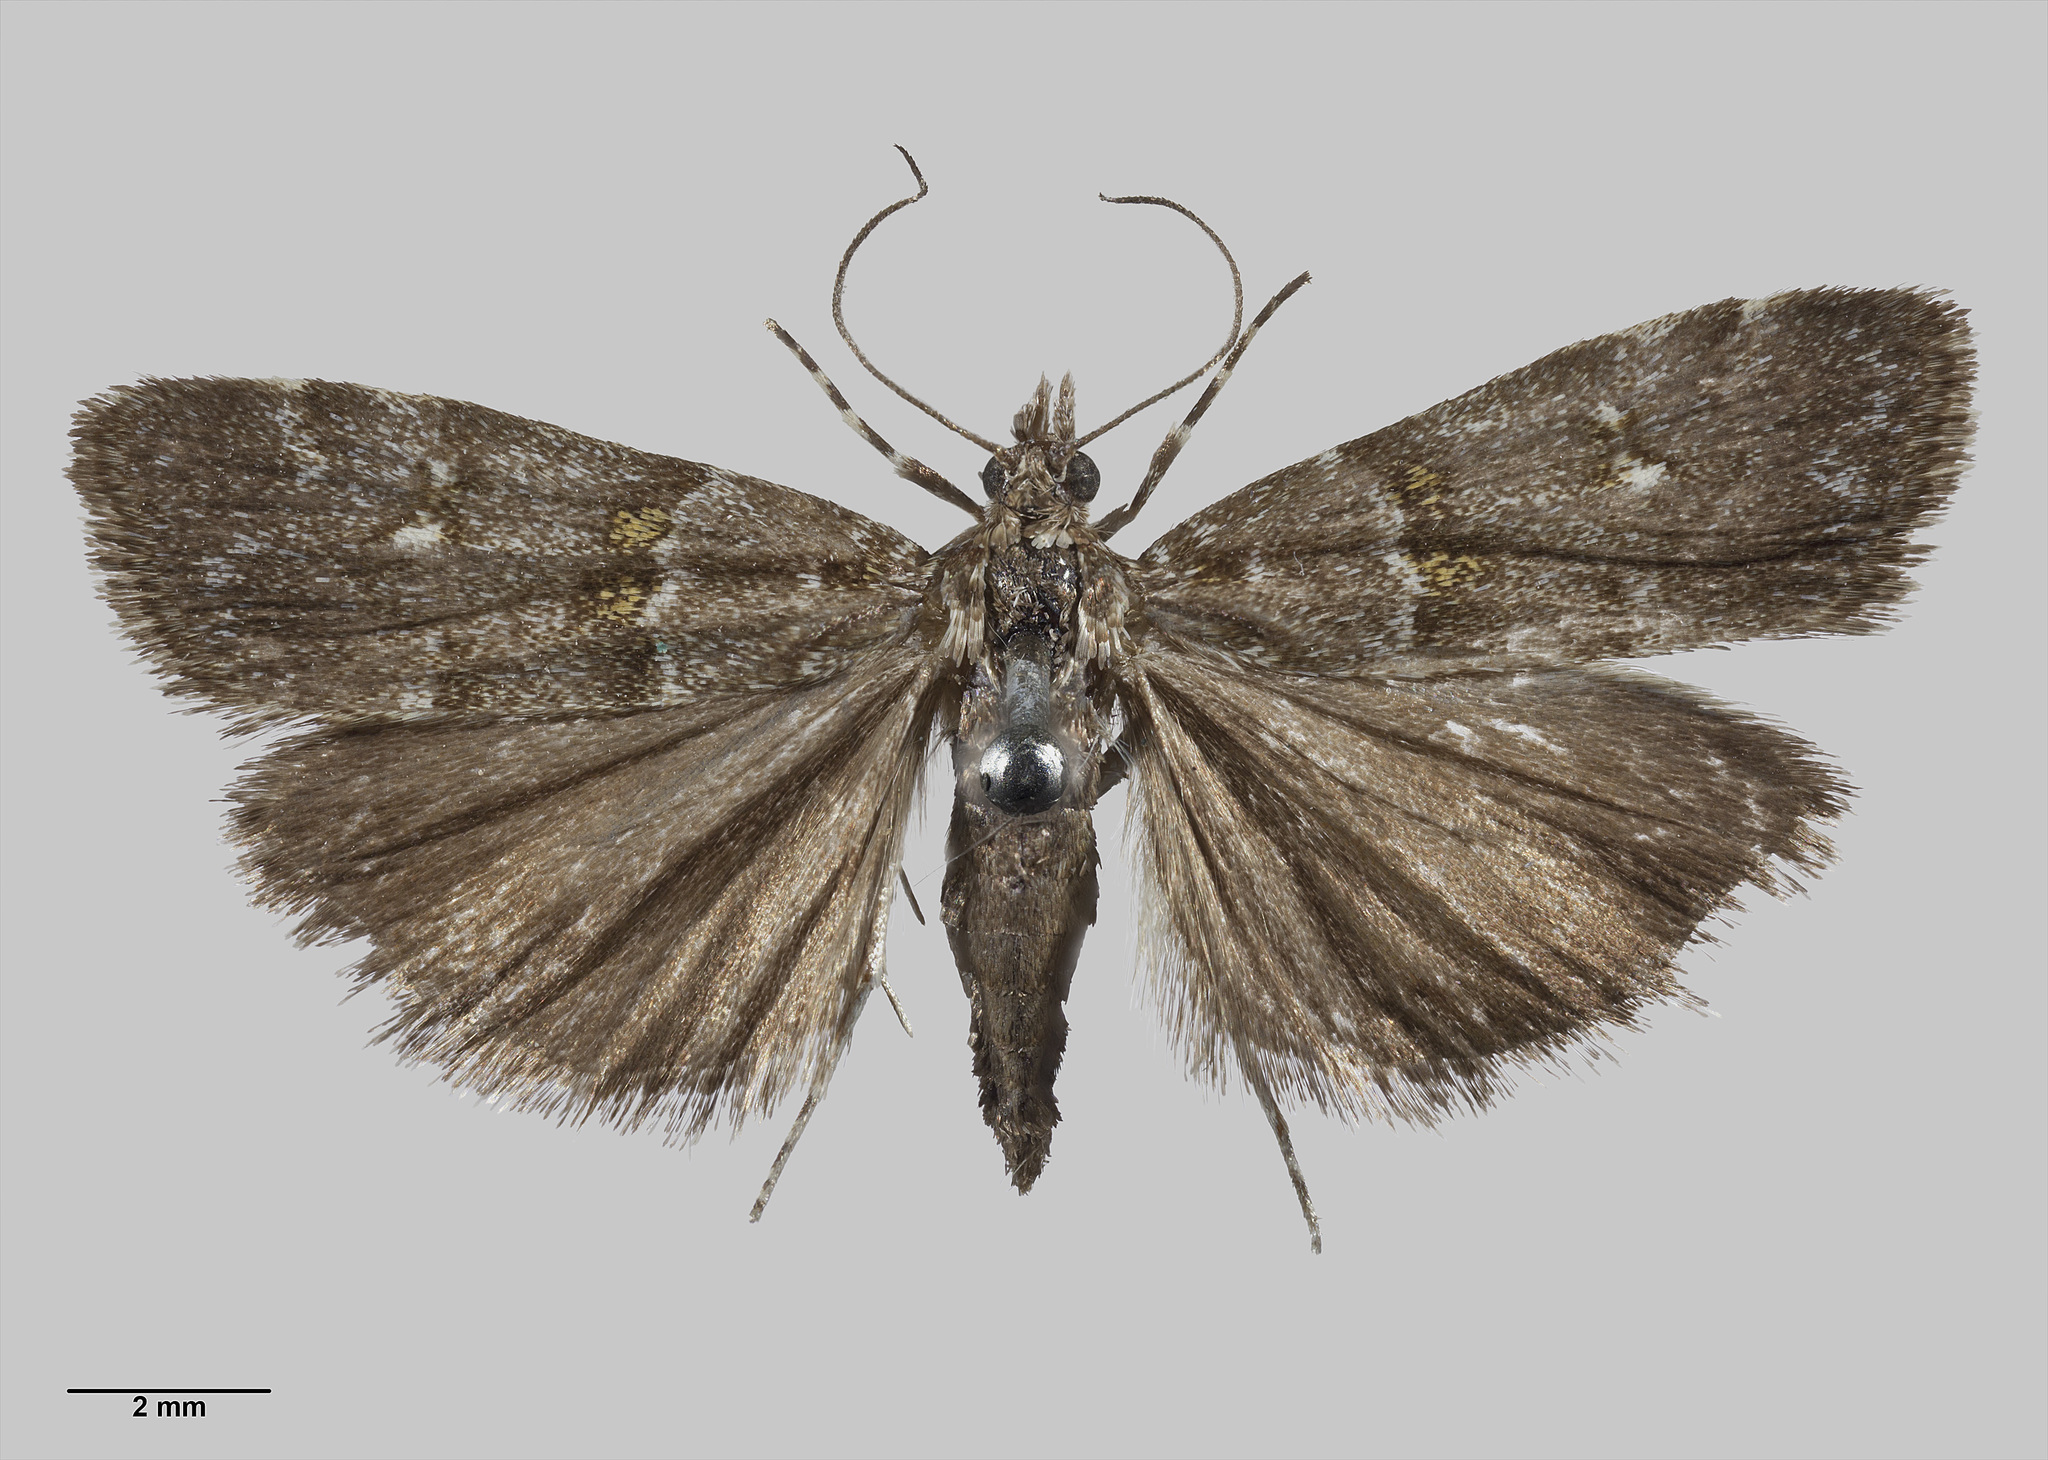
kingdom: Animalia
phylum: Arthropoda
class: Insecta
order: Lepidoptera
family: Crambidae
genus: Scoparia
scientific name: Scoparia sylvestris
